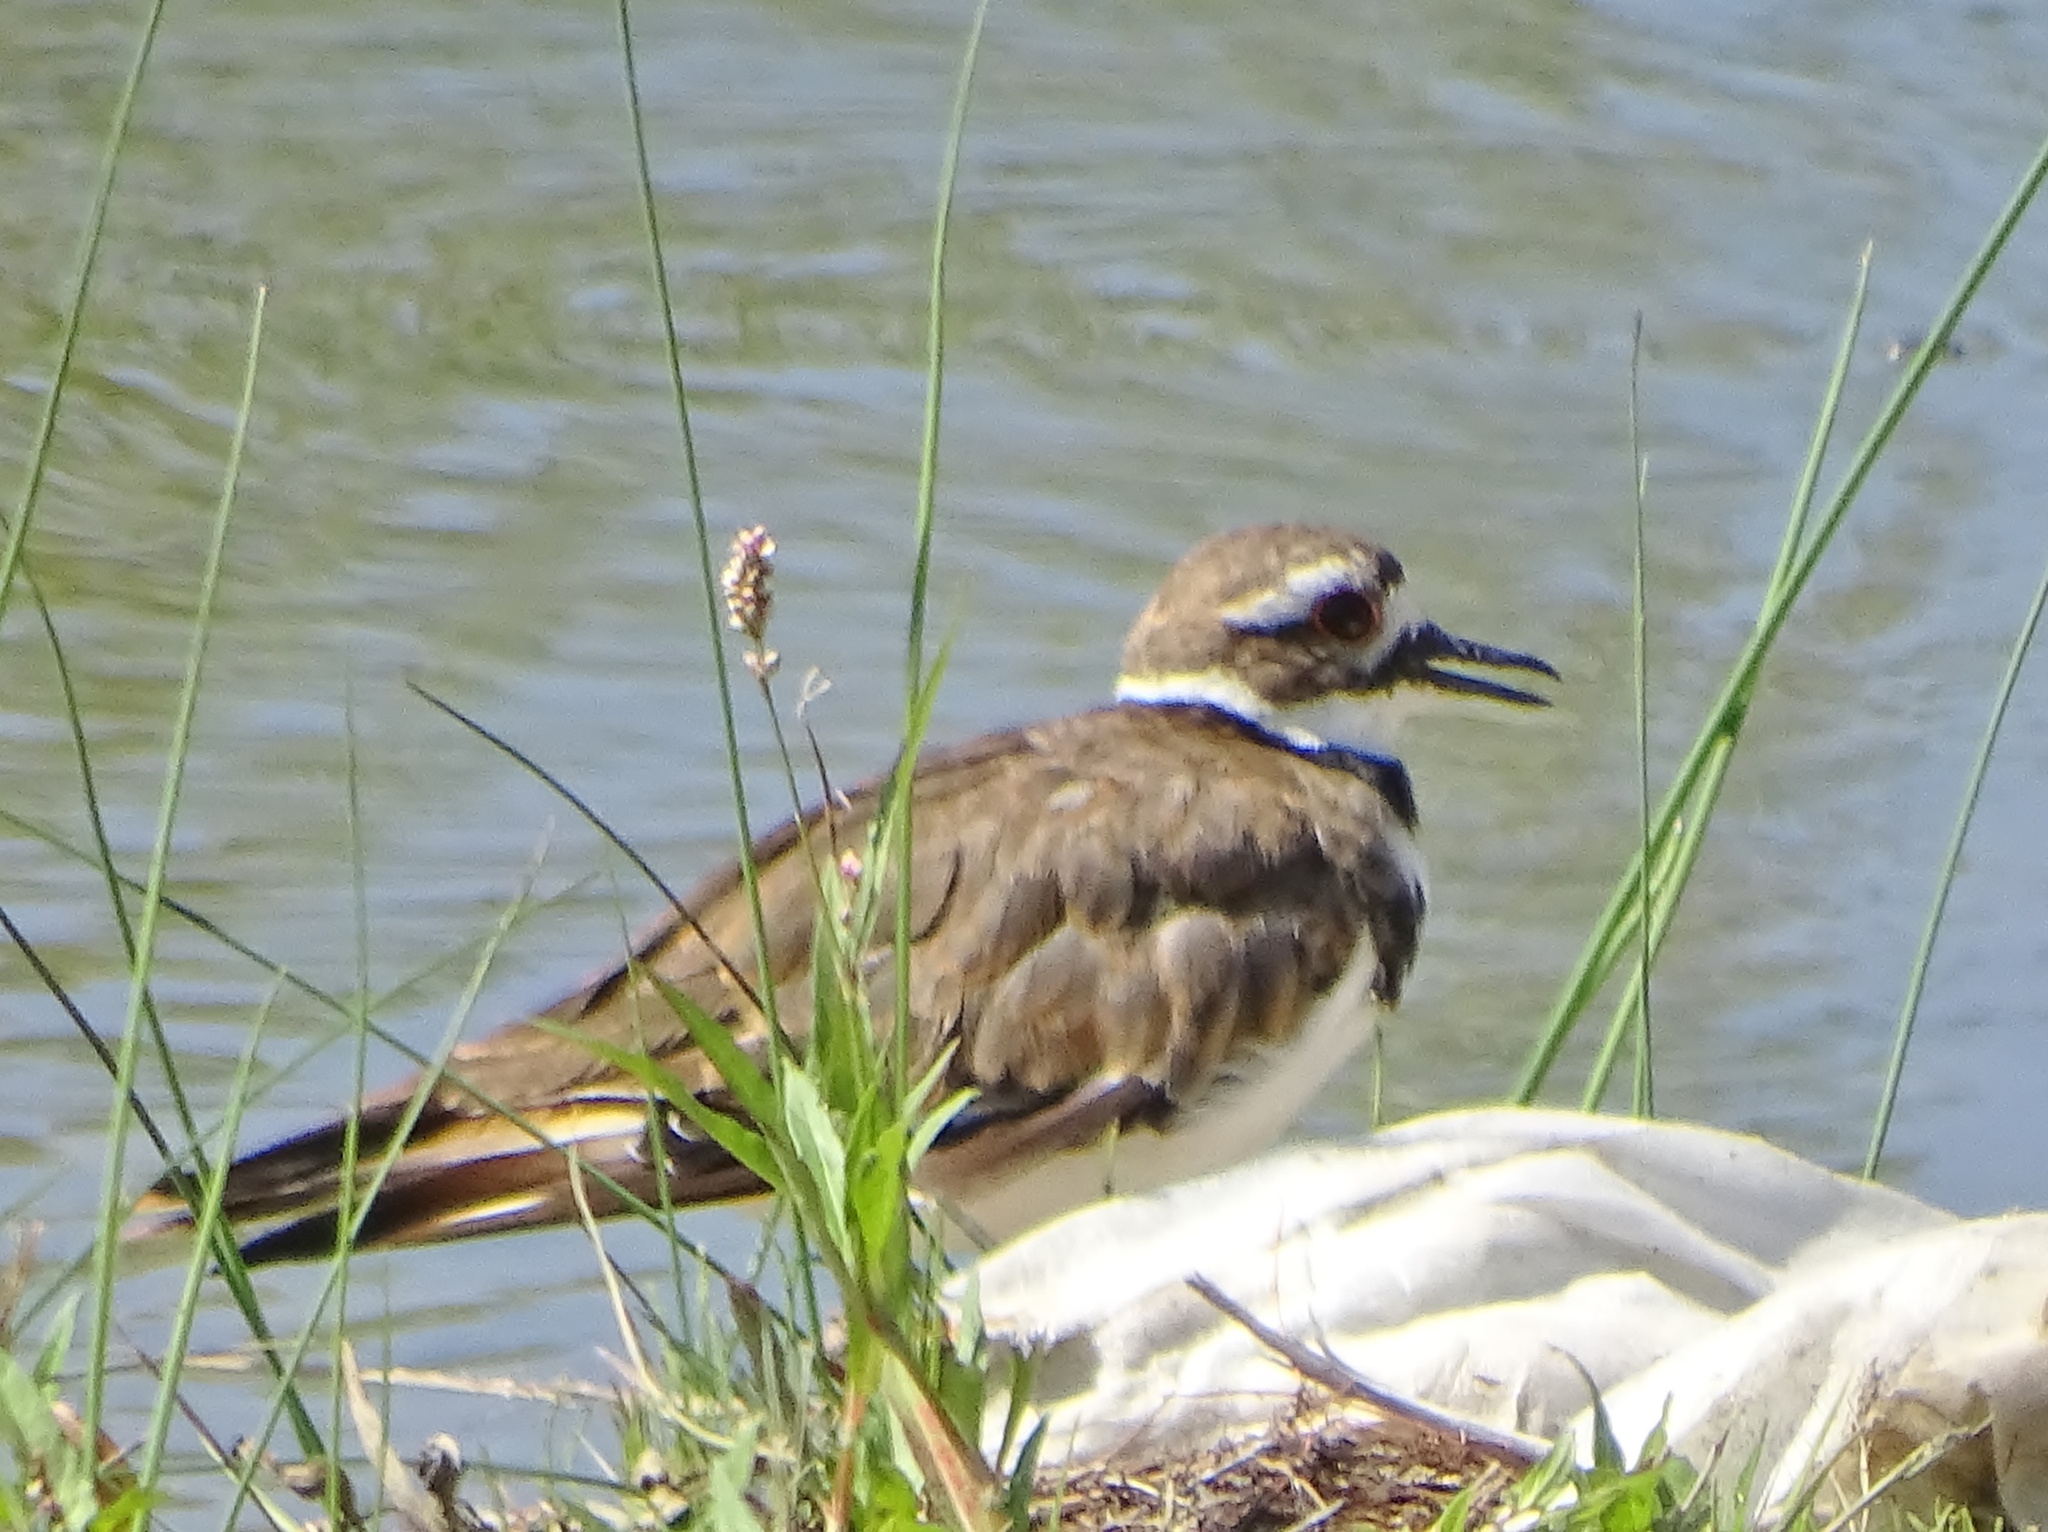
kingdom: Animalia
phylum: Chordata
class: Aves
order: Charadriiformes
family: Charadriidae
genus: Charadrius
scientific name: Charadrius vociferus
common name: Killdeer
